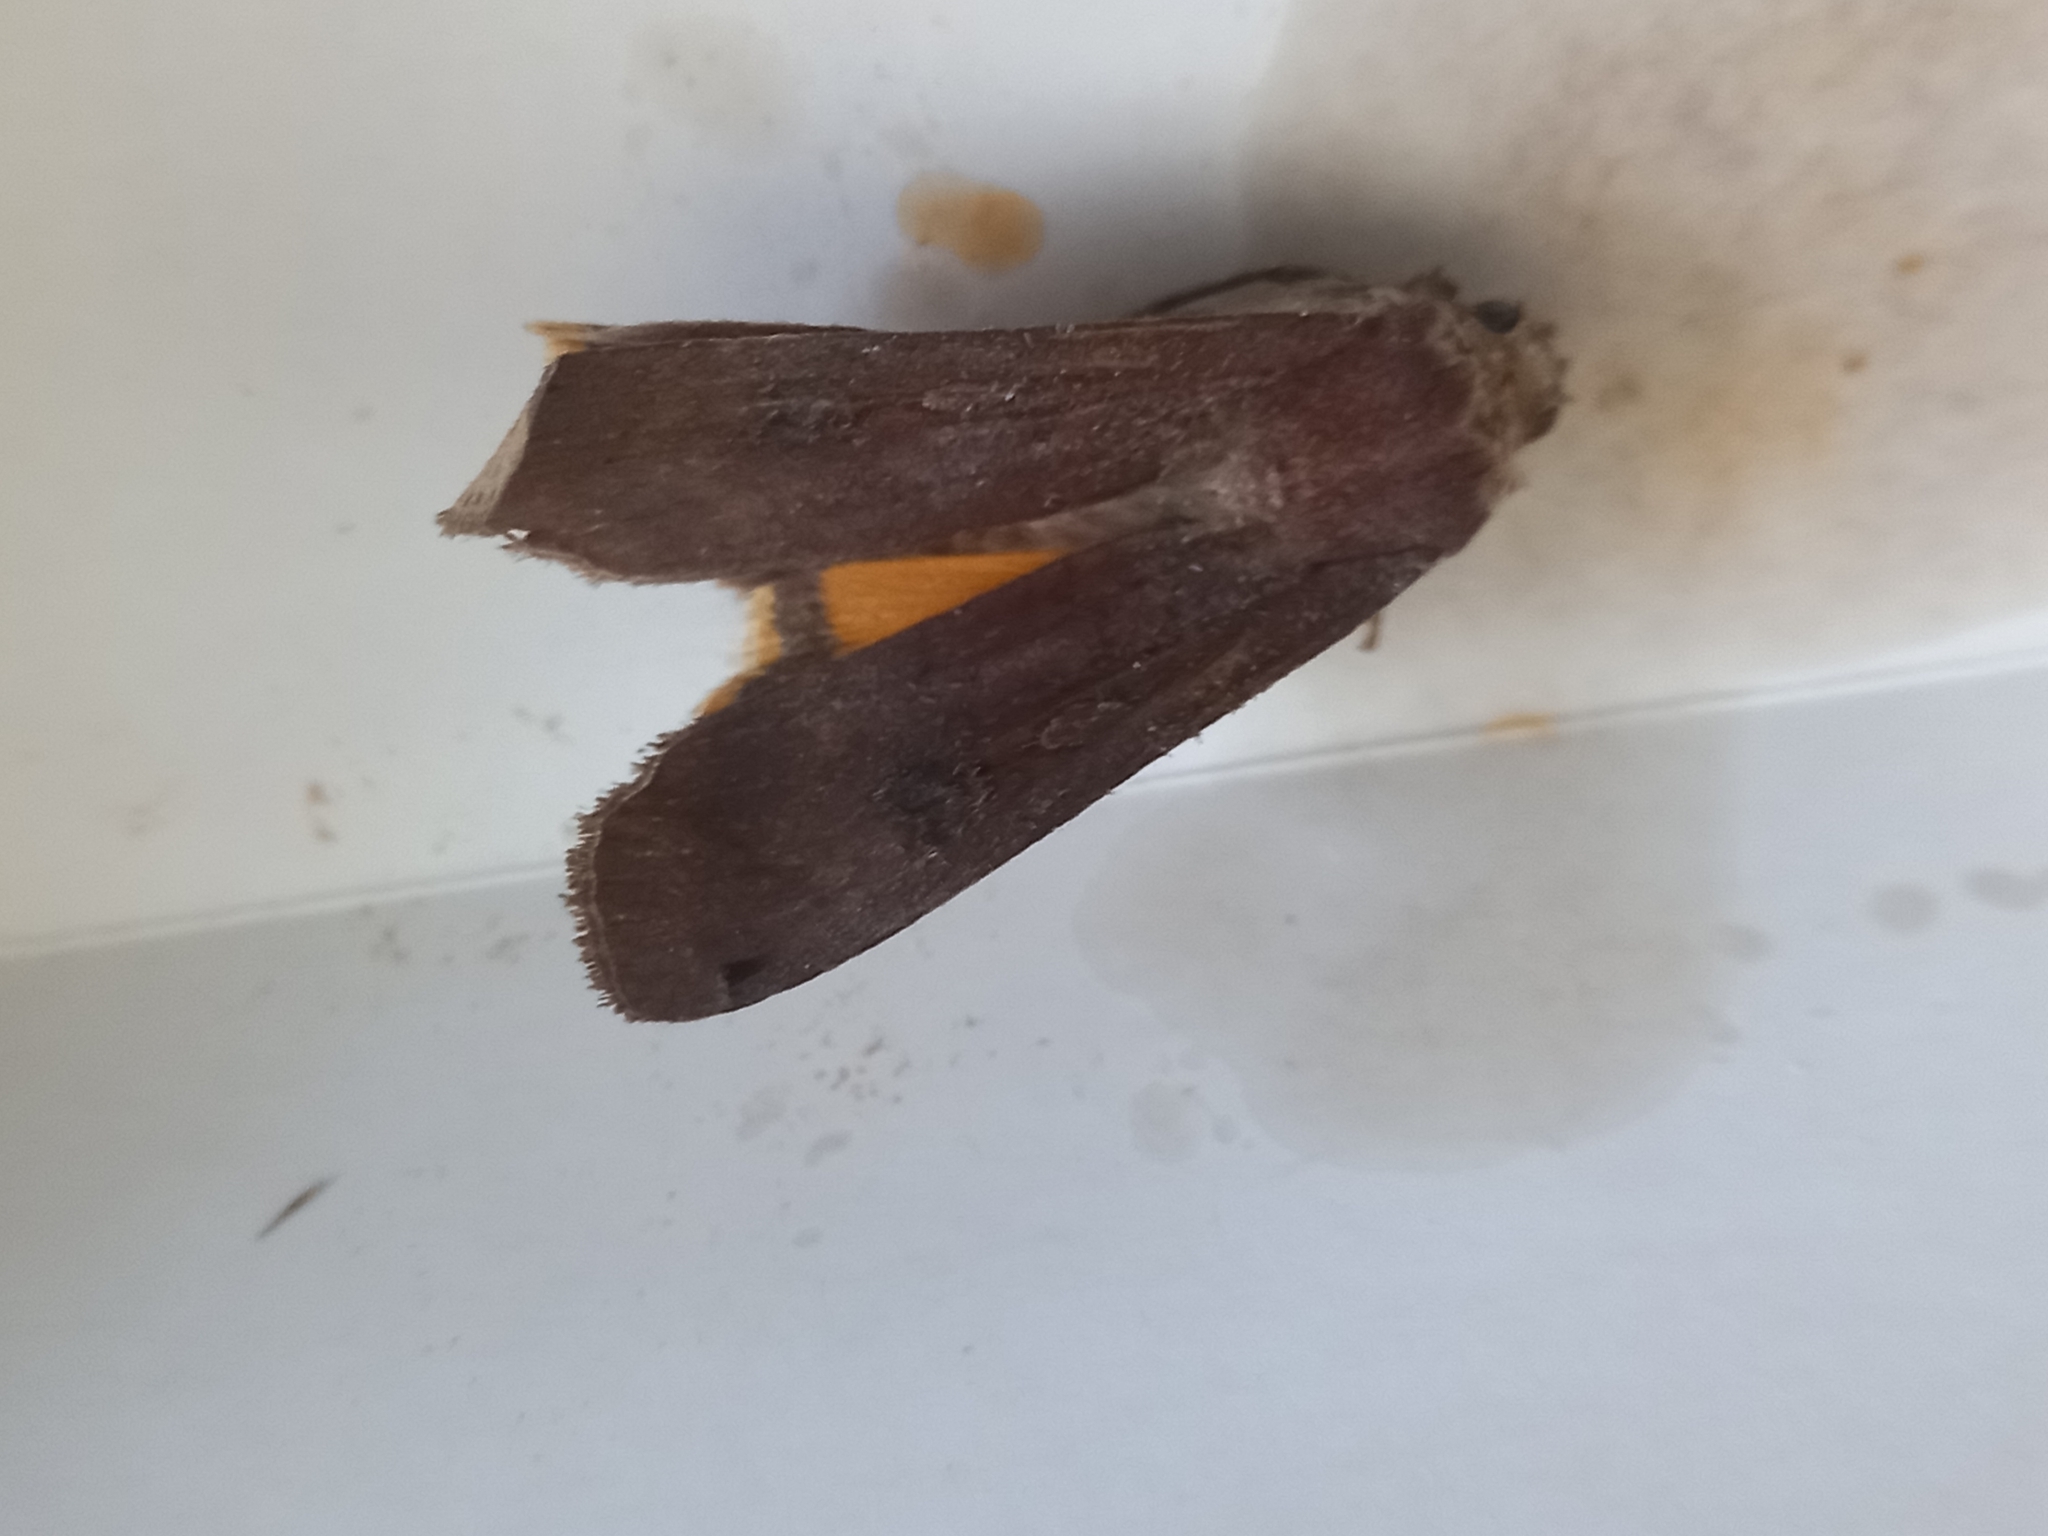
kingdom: Animalia
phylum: Arthropoda
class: Insecta
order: Lepidoptera
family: Noctuidae
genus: Noctua
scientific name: Noctua pronuba
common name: Large yellow underwing
